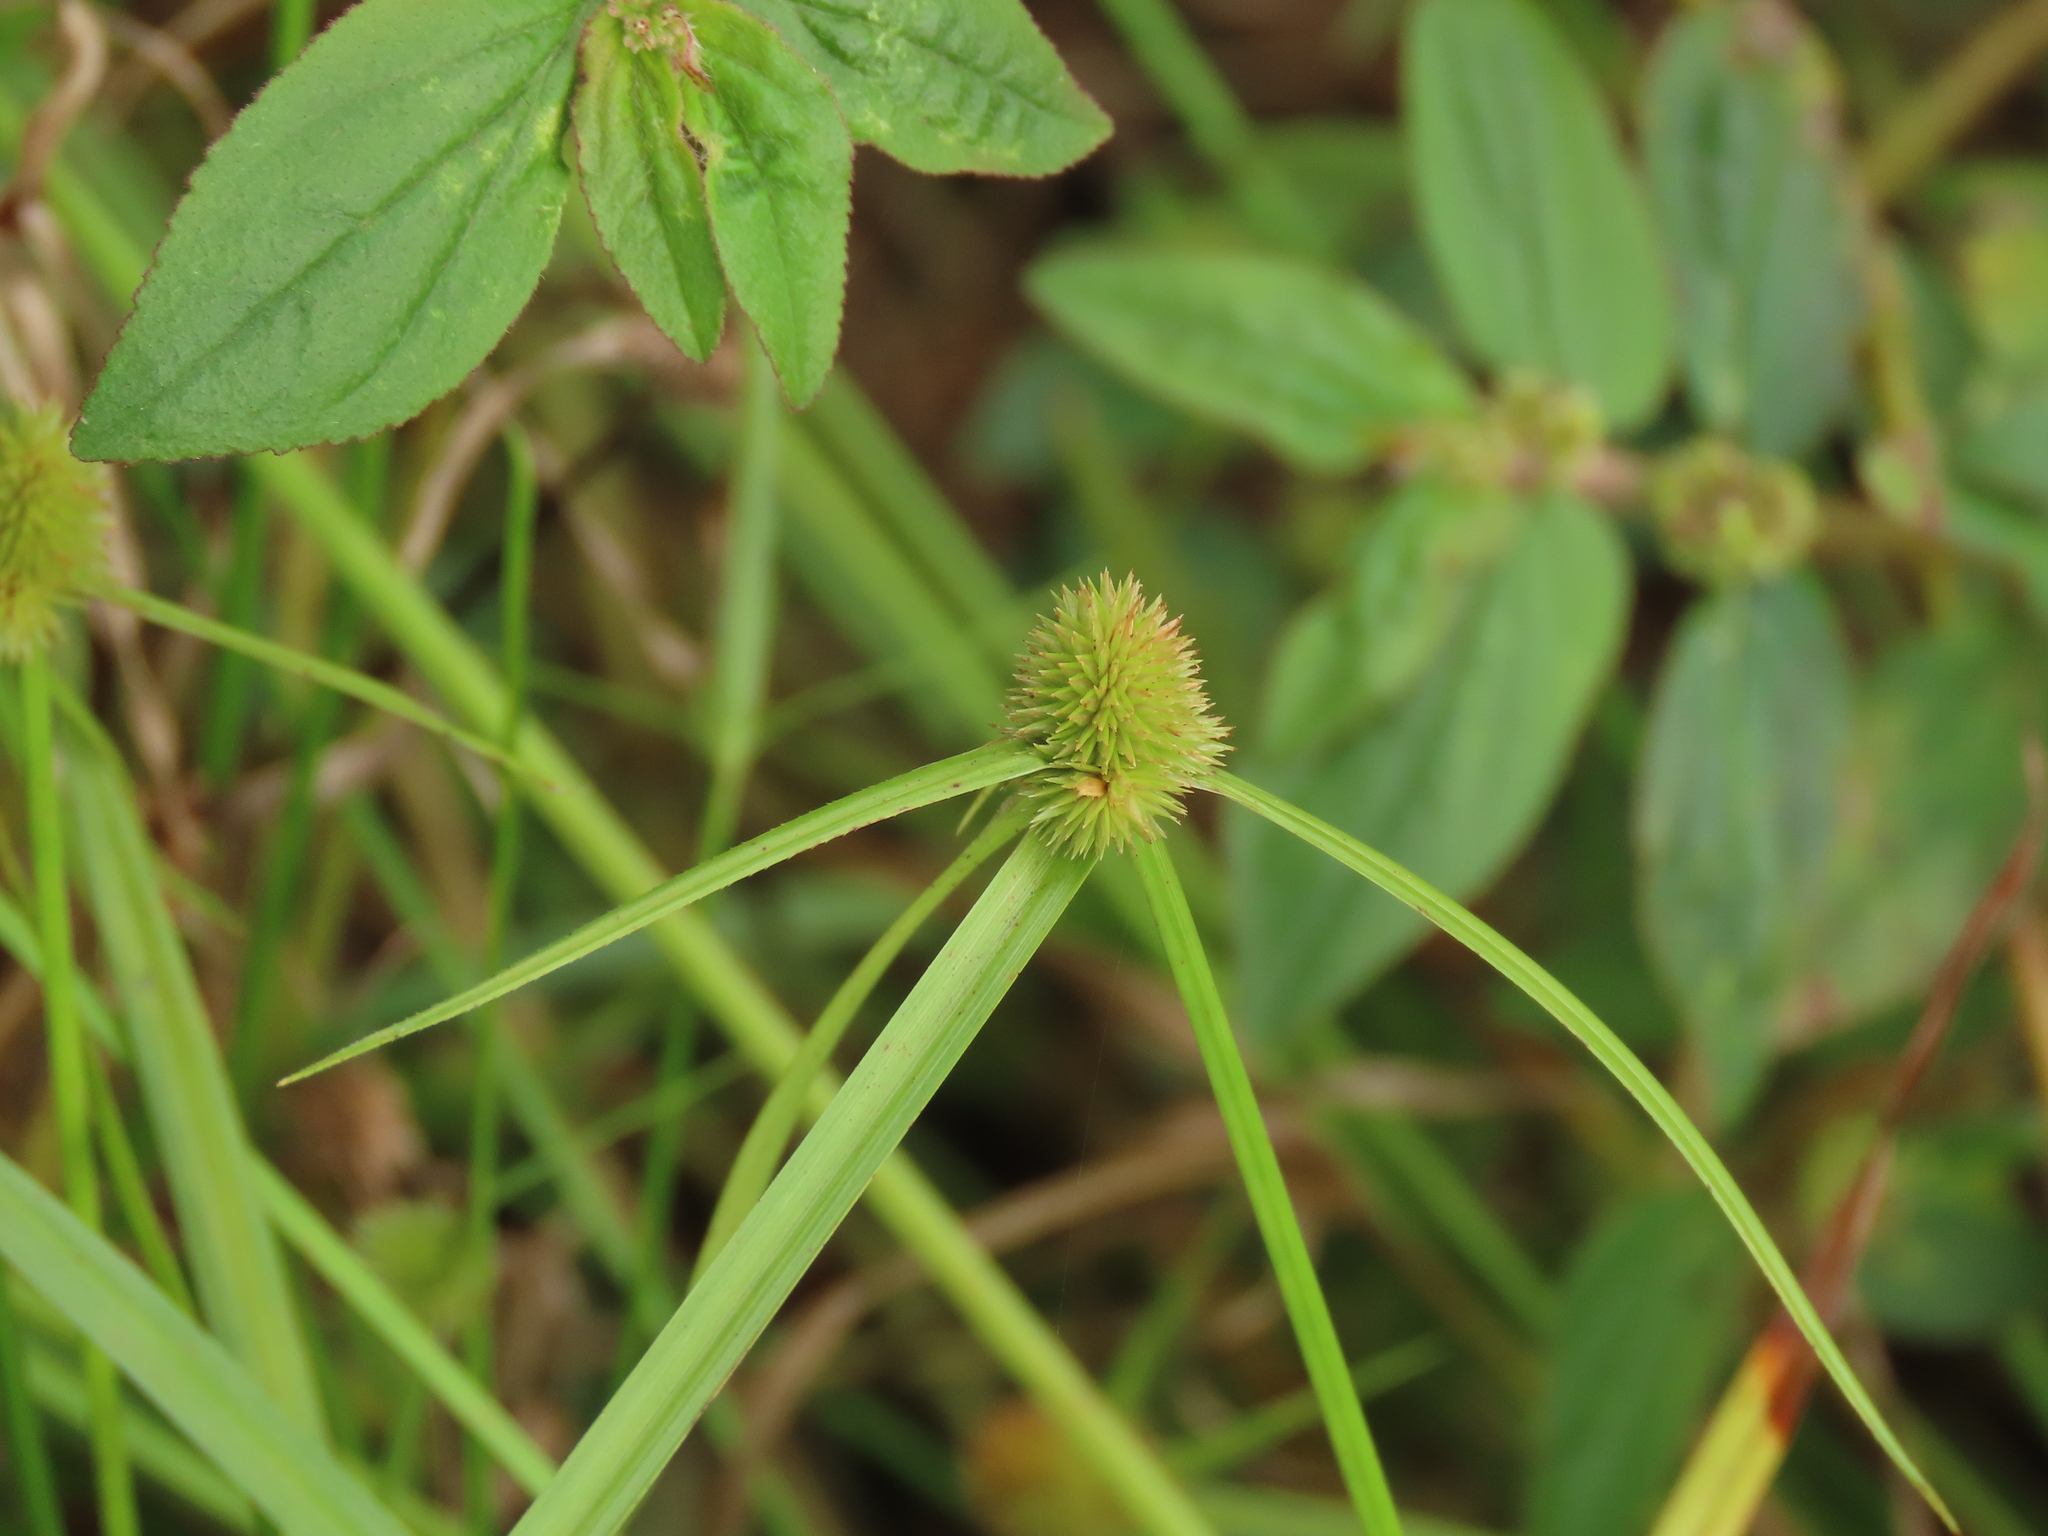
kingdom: Plantae
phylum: Tracheophyta
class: Liliopsida
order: Poales
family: Cyperaceae
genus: Cyperus
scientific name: Cyperus brevifolius
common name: Globe kyllinga
